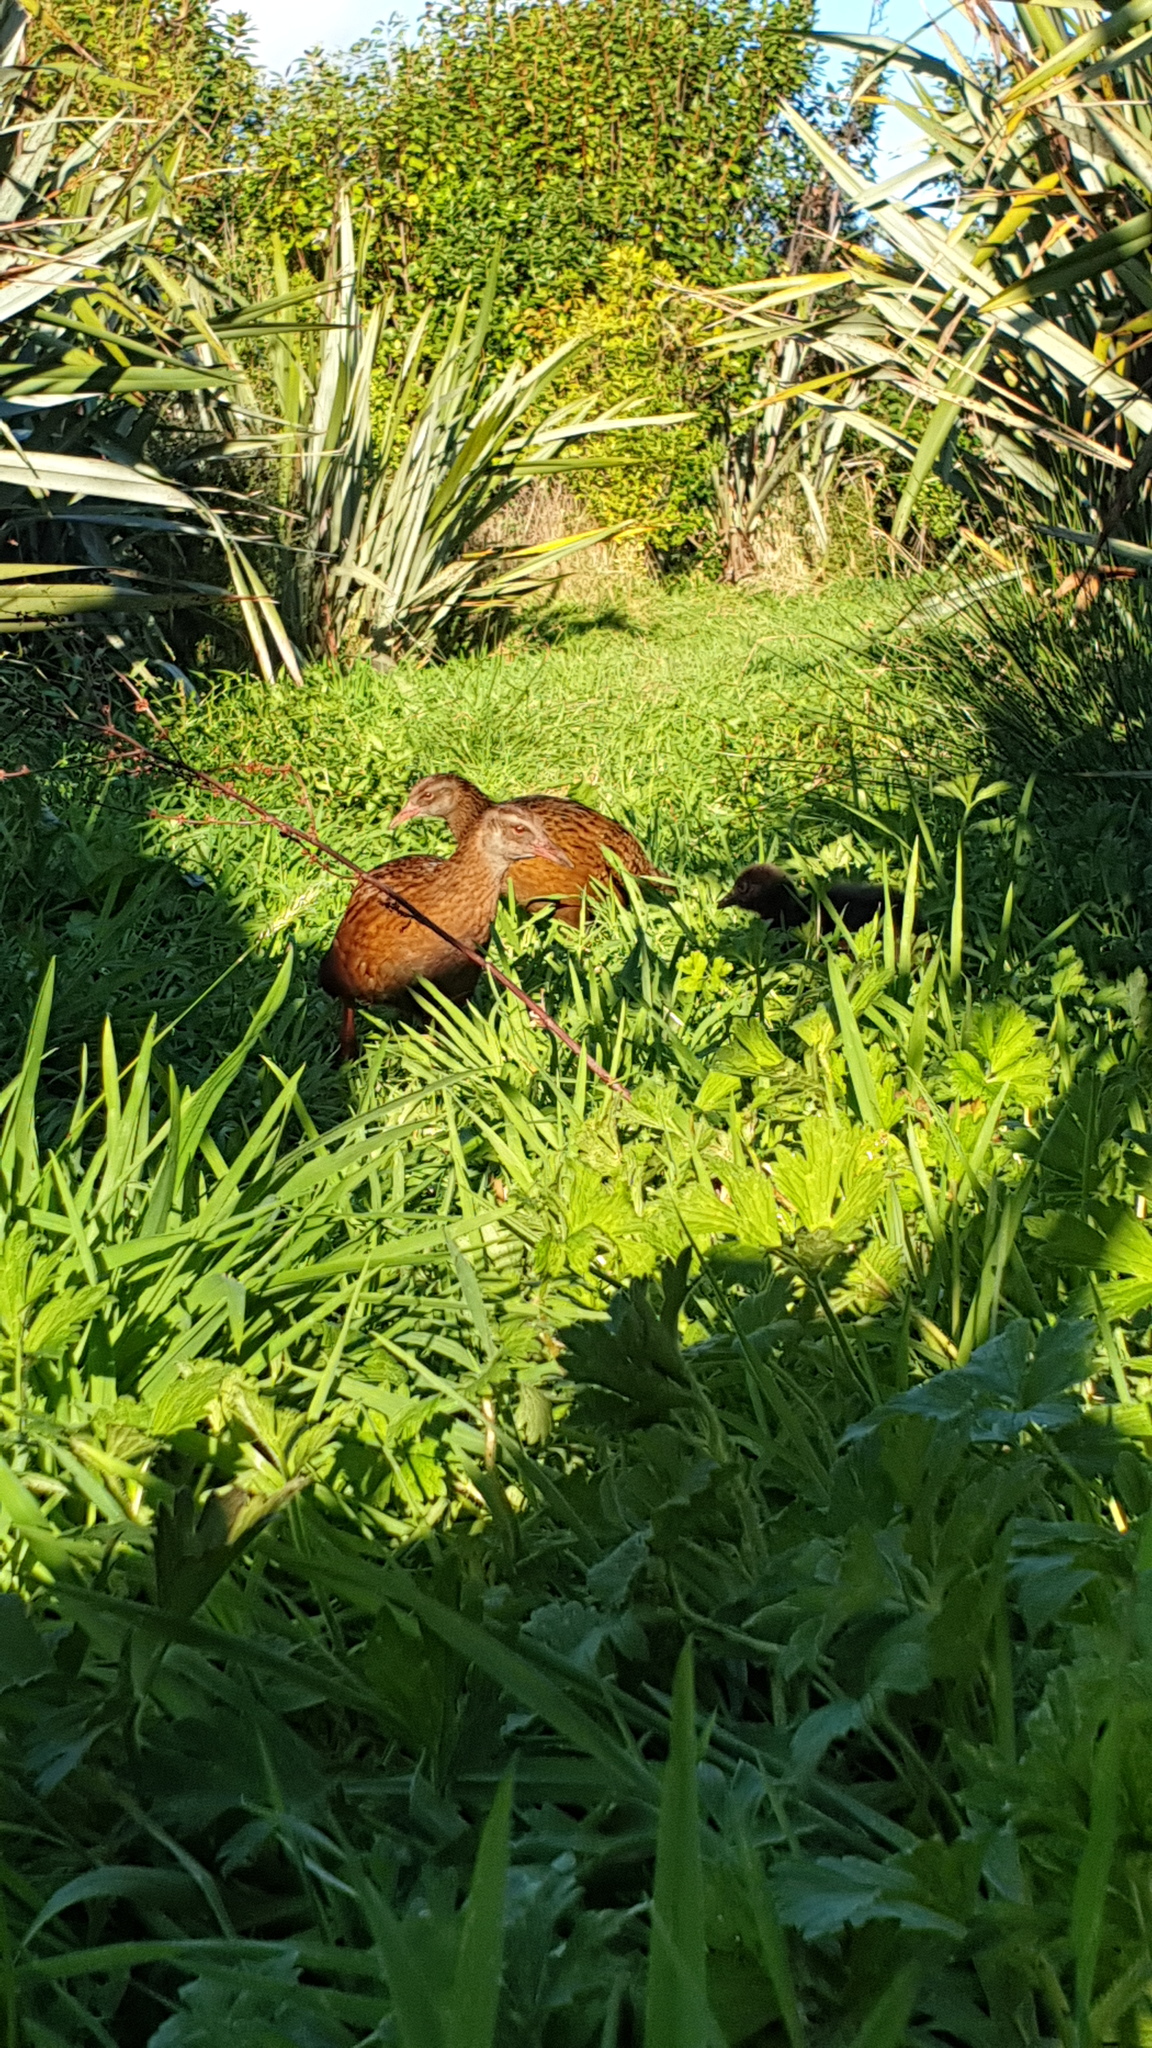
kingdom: Animalia
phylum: Chordata
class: Aves
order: Gruiformes
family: Rallidae
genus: Gallirallus
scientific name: Gallirallus australis
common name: Weka
